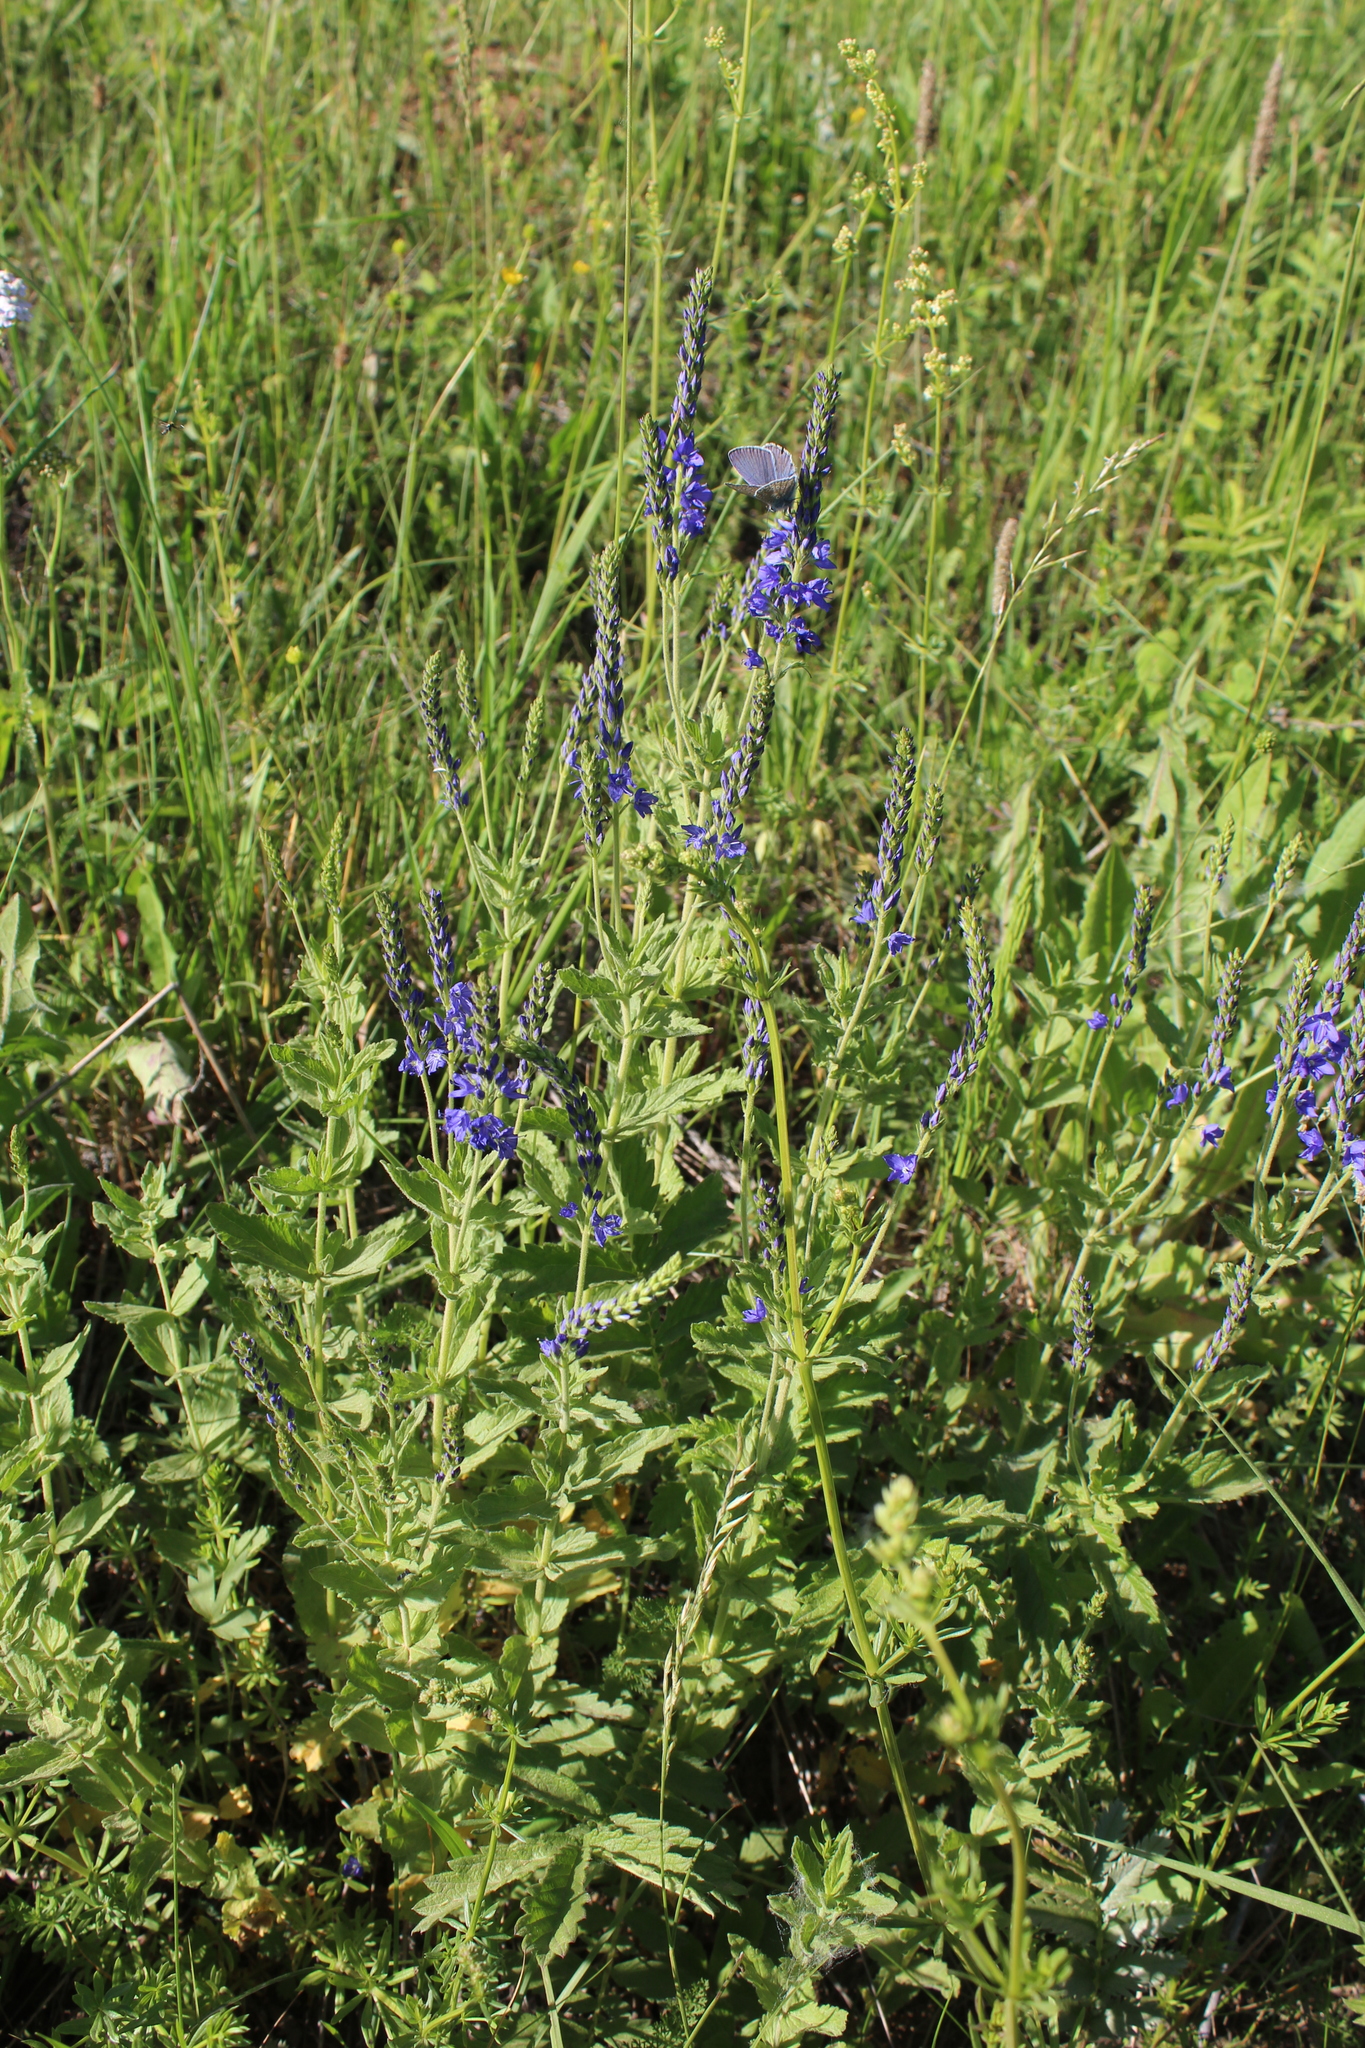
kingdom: Plantae
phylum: Tracheophyta
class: Magnoliopsida
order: Lamiales
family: Plantaginaceae
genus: Veronica
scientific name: Veronica teucrium
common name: Large speedwell
